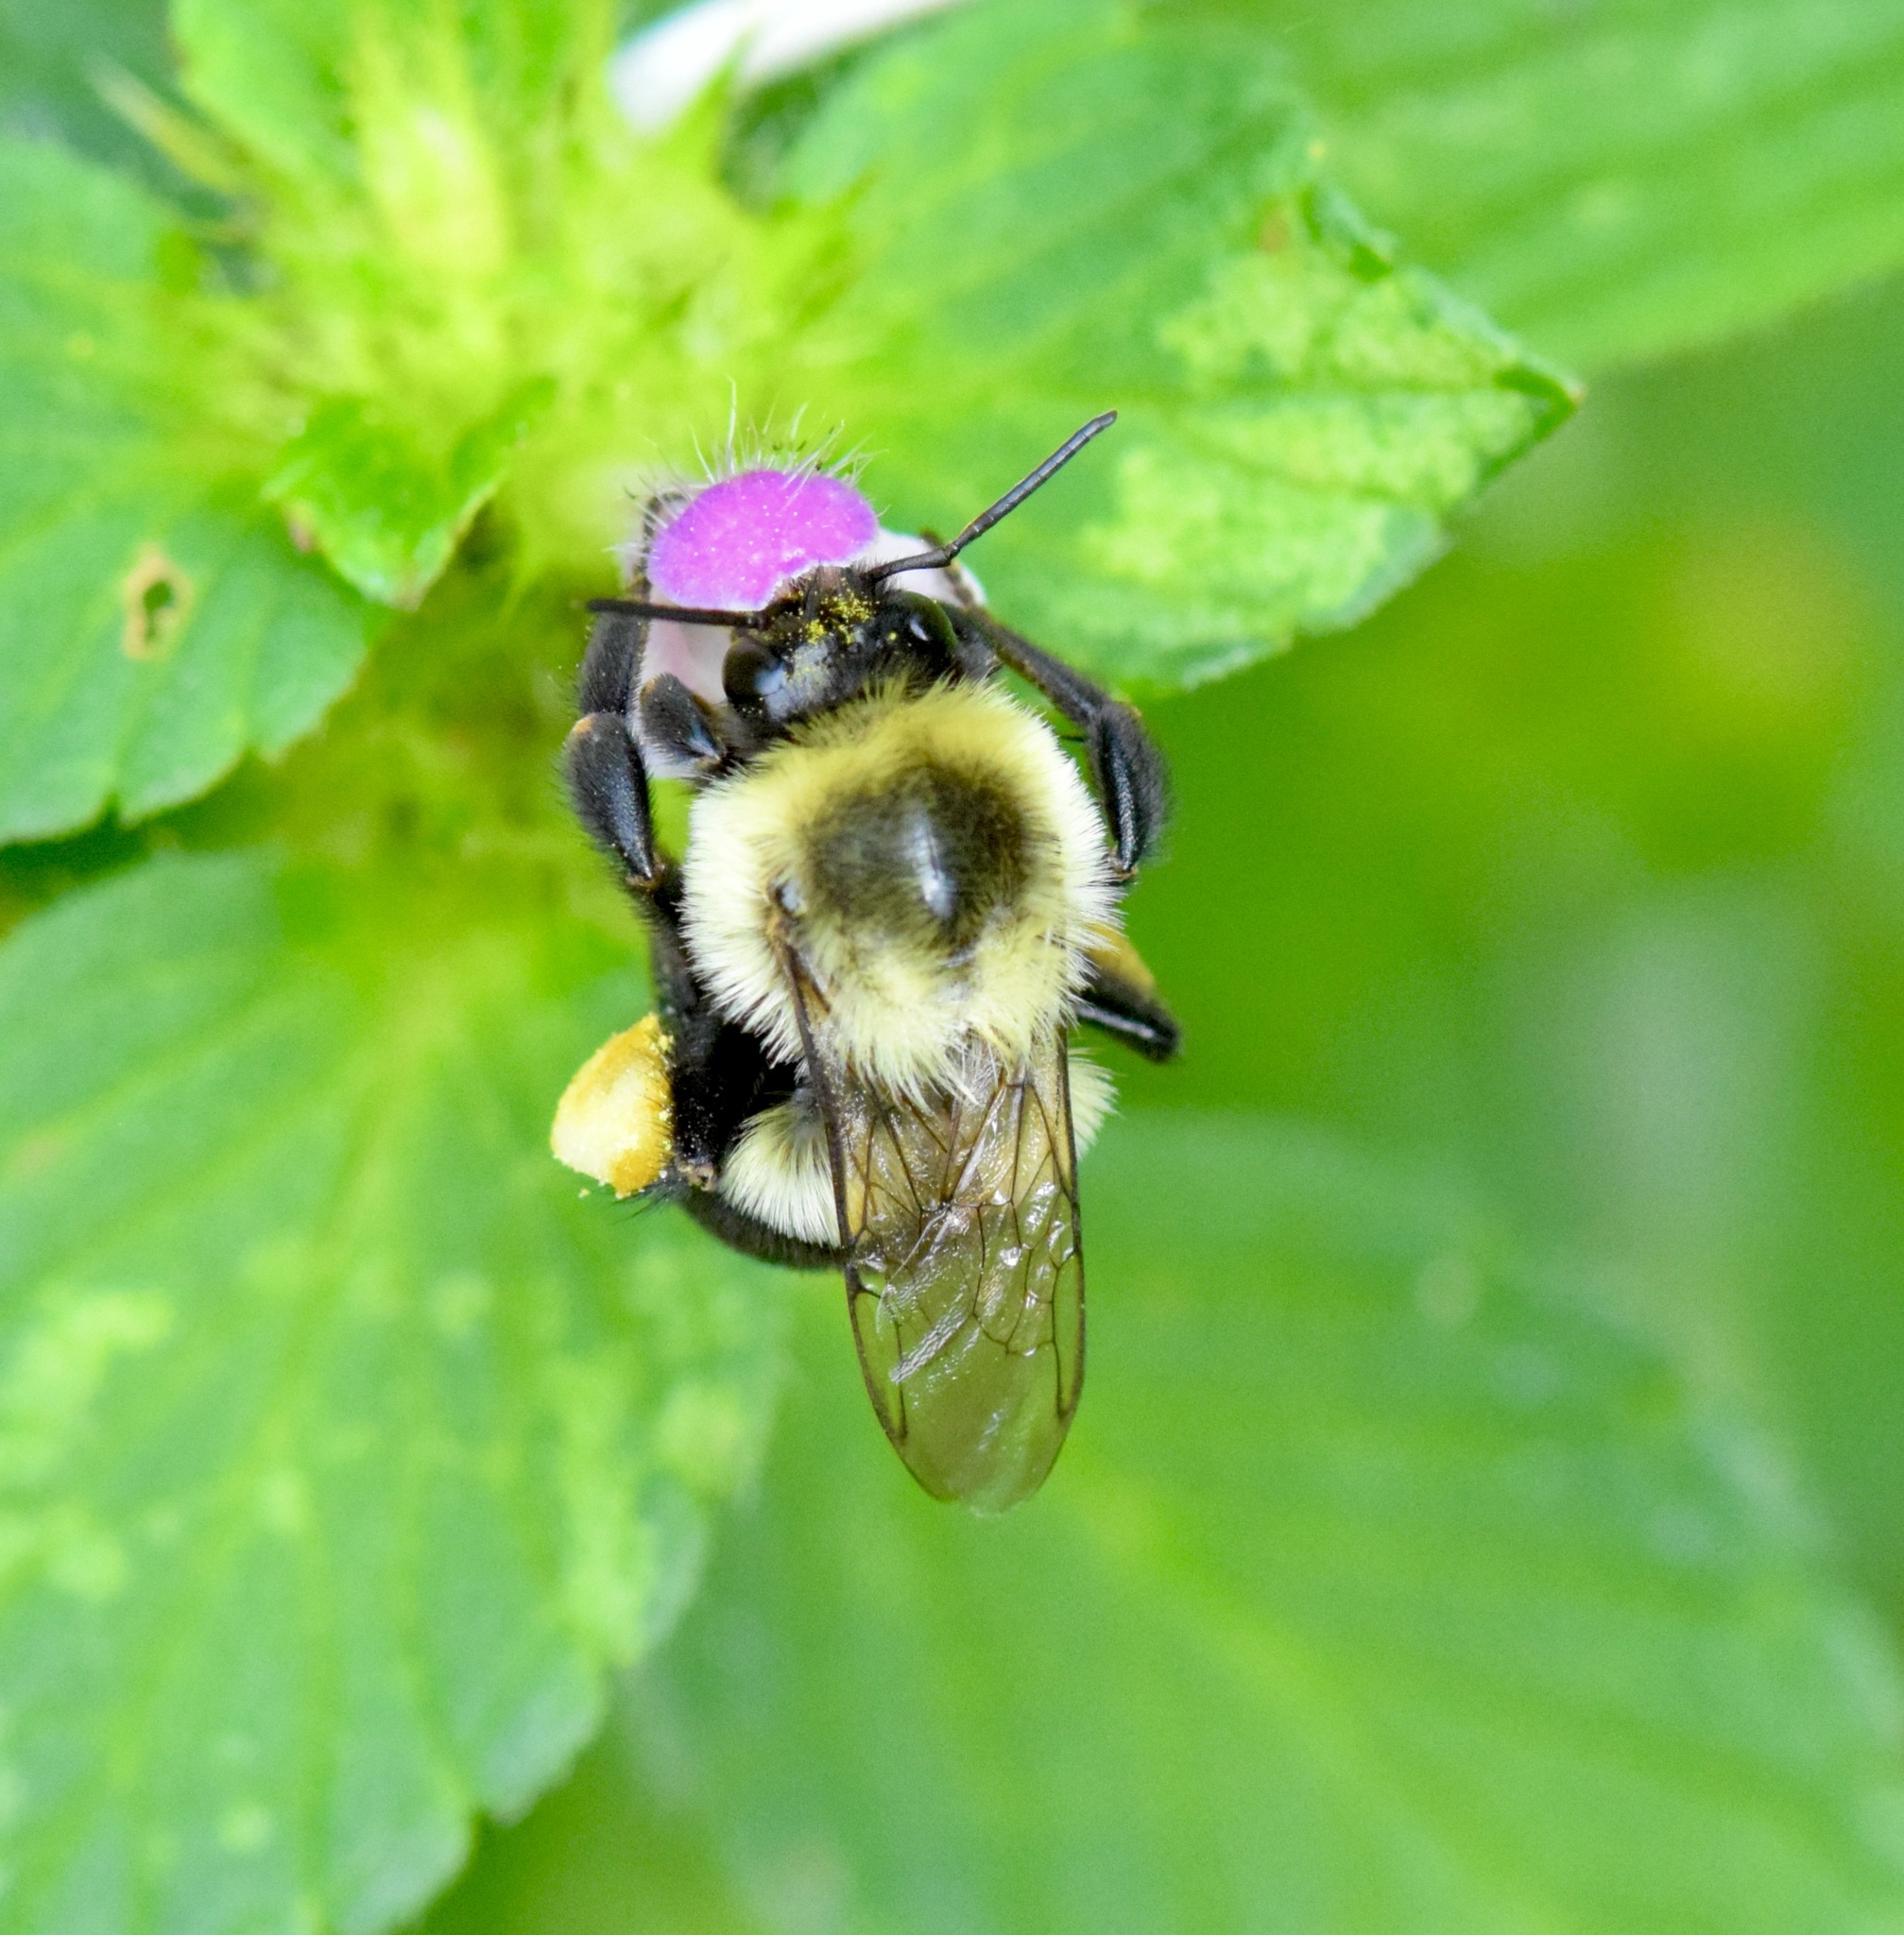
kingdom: Animalia
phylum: Arthropoda
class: Insecta
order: Hymenoptera
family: Apidae
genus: Bombus
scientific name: Bombus impatiens
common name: Common eastern bumble bee
